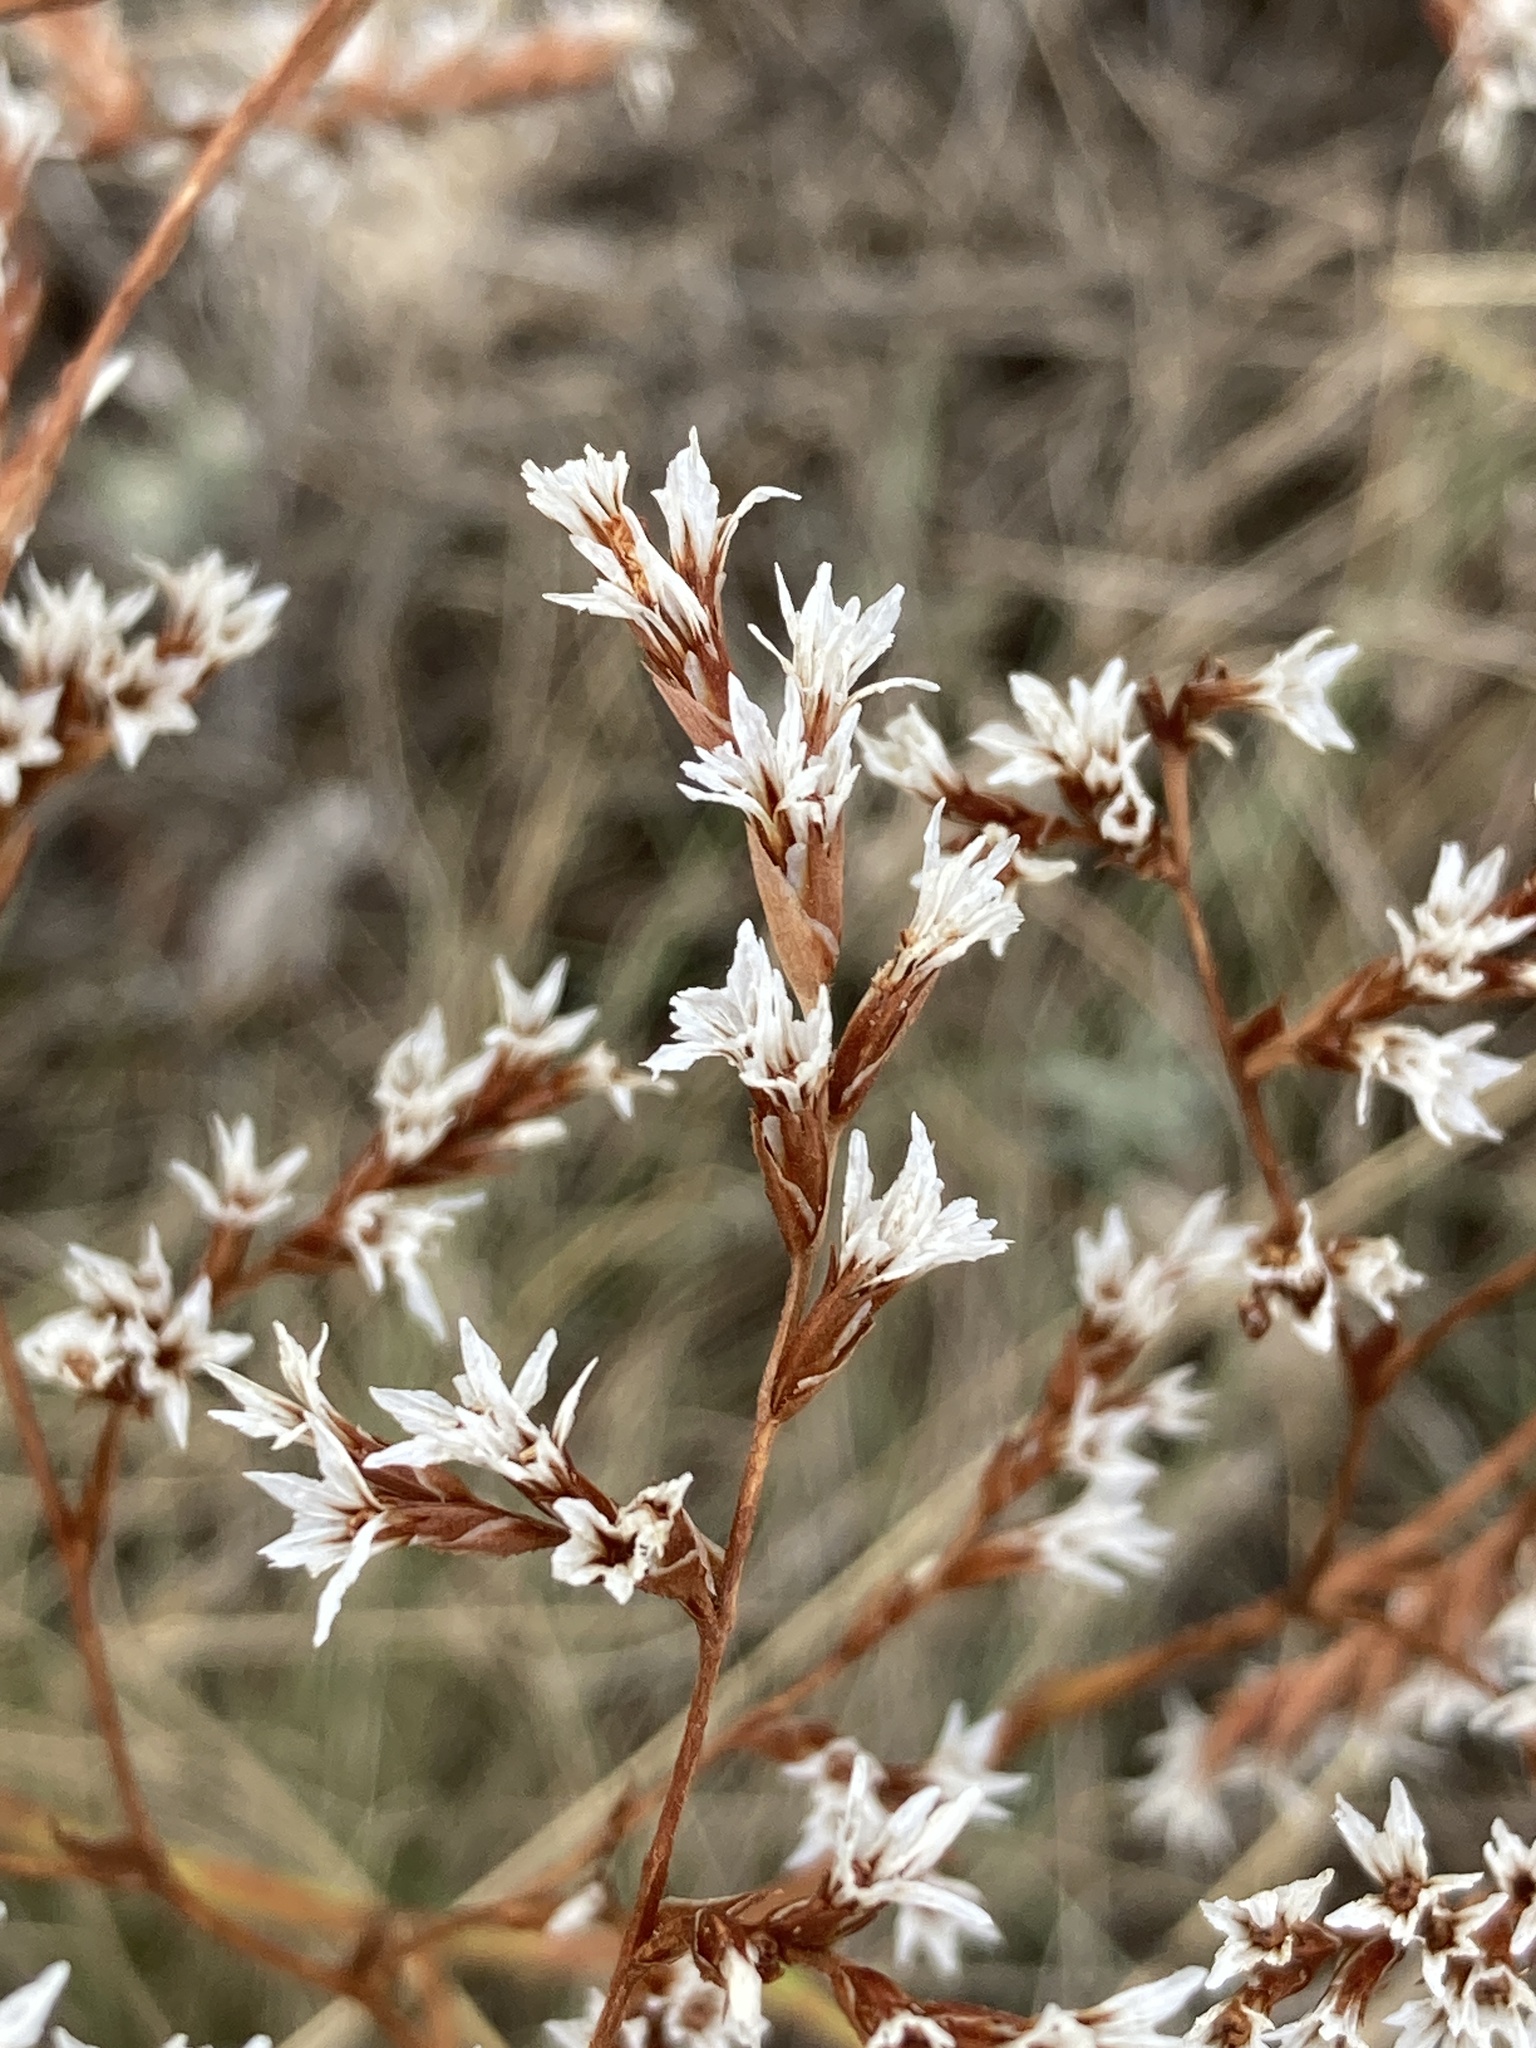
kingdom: Plantae
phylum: Tracheophyta
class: Magnoliopsida
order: Caryophyllales
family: Plumbaginaceae
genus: Goniolimon
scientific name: Goniolimon tataricum
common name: Statice
